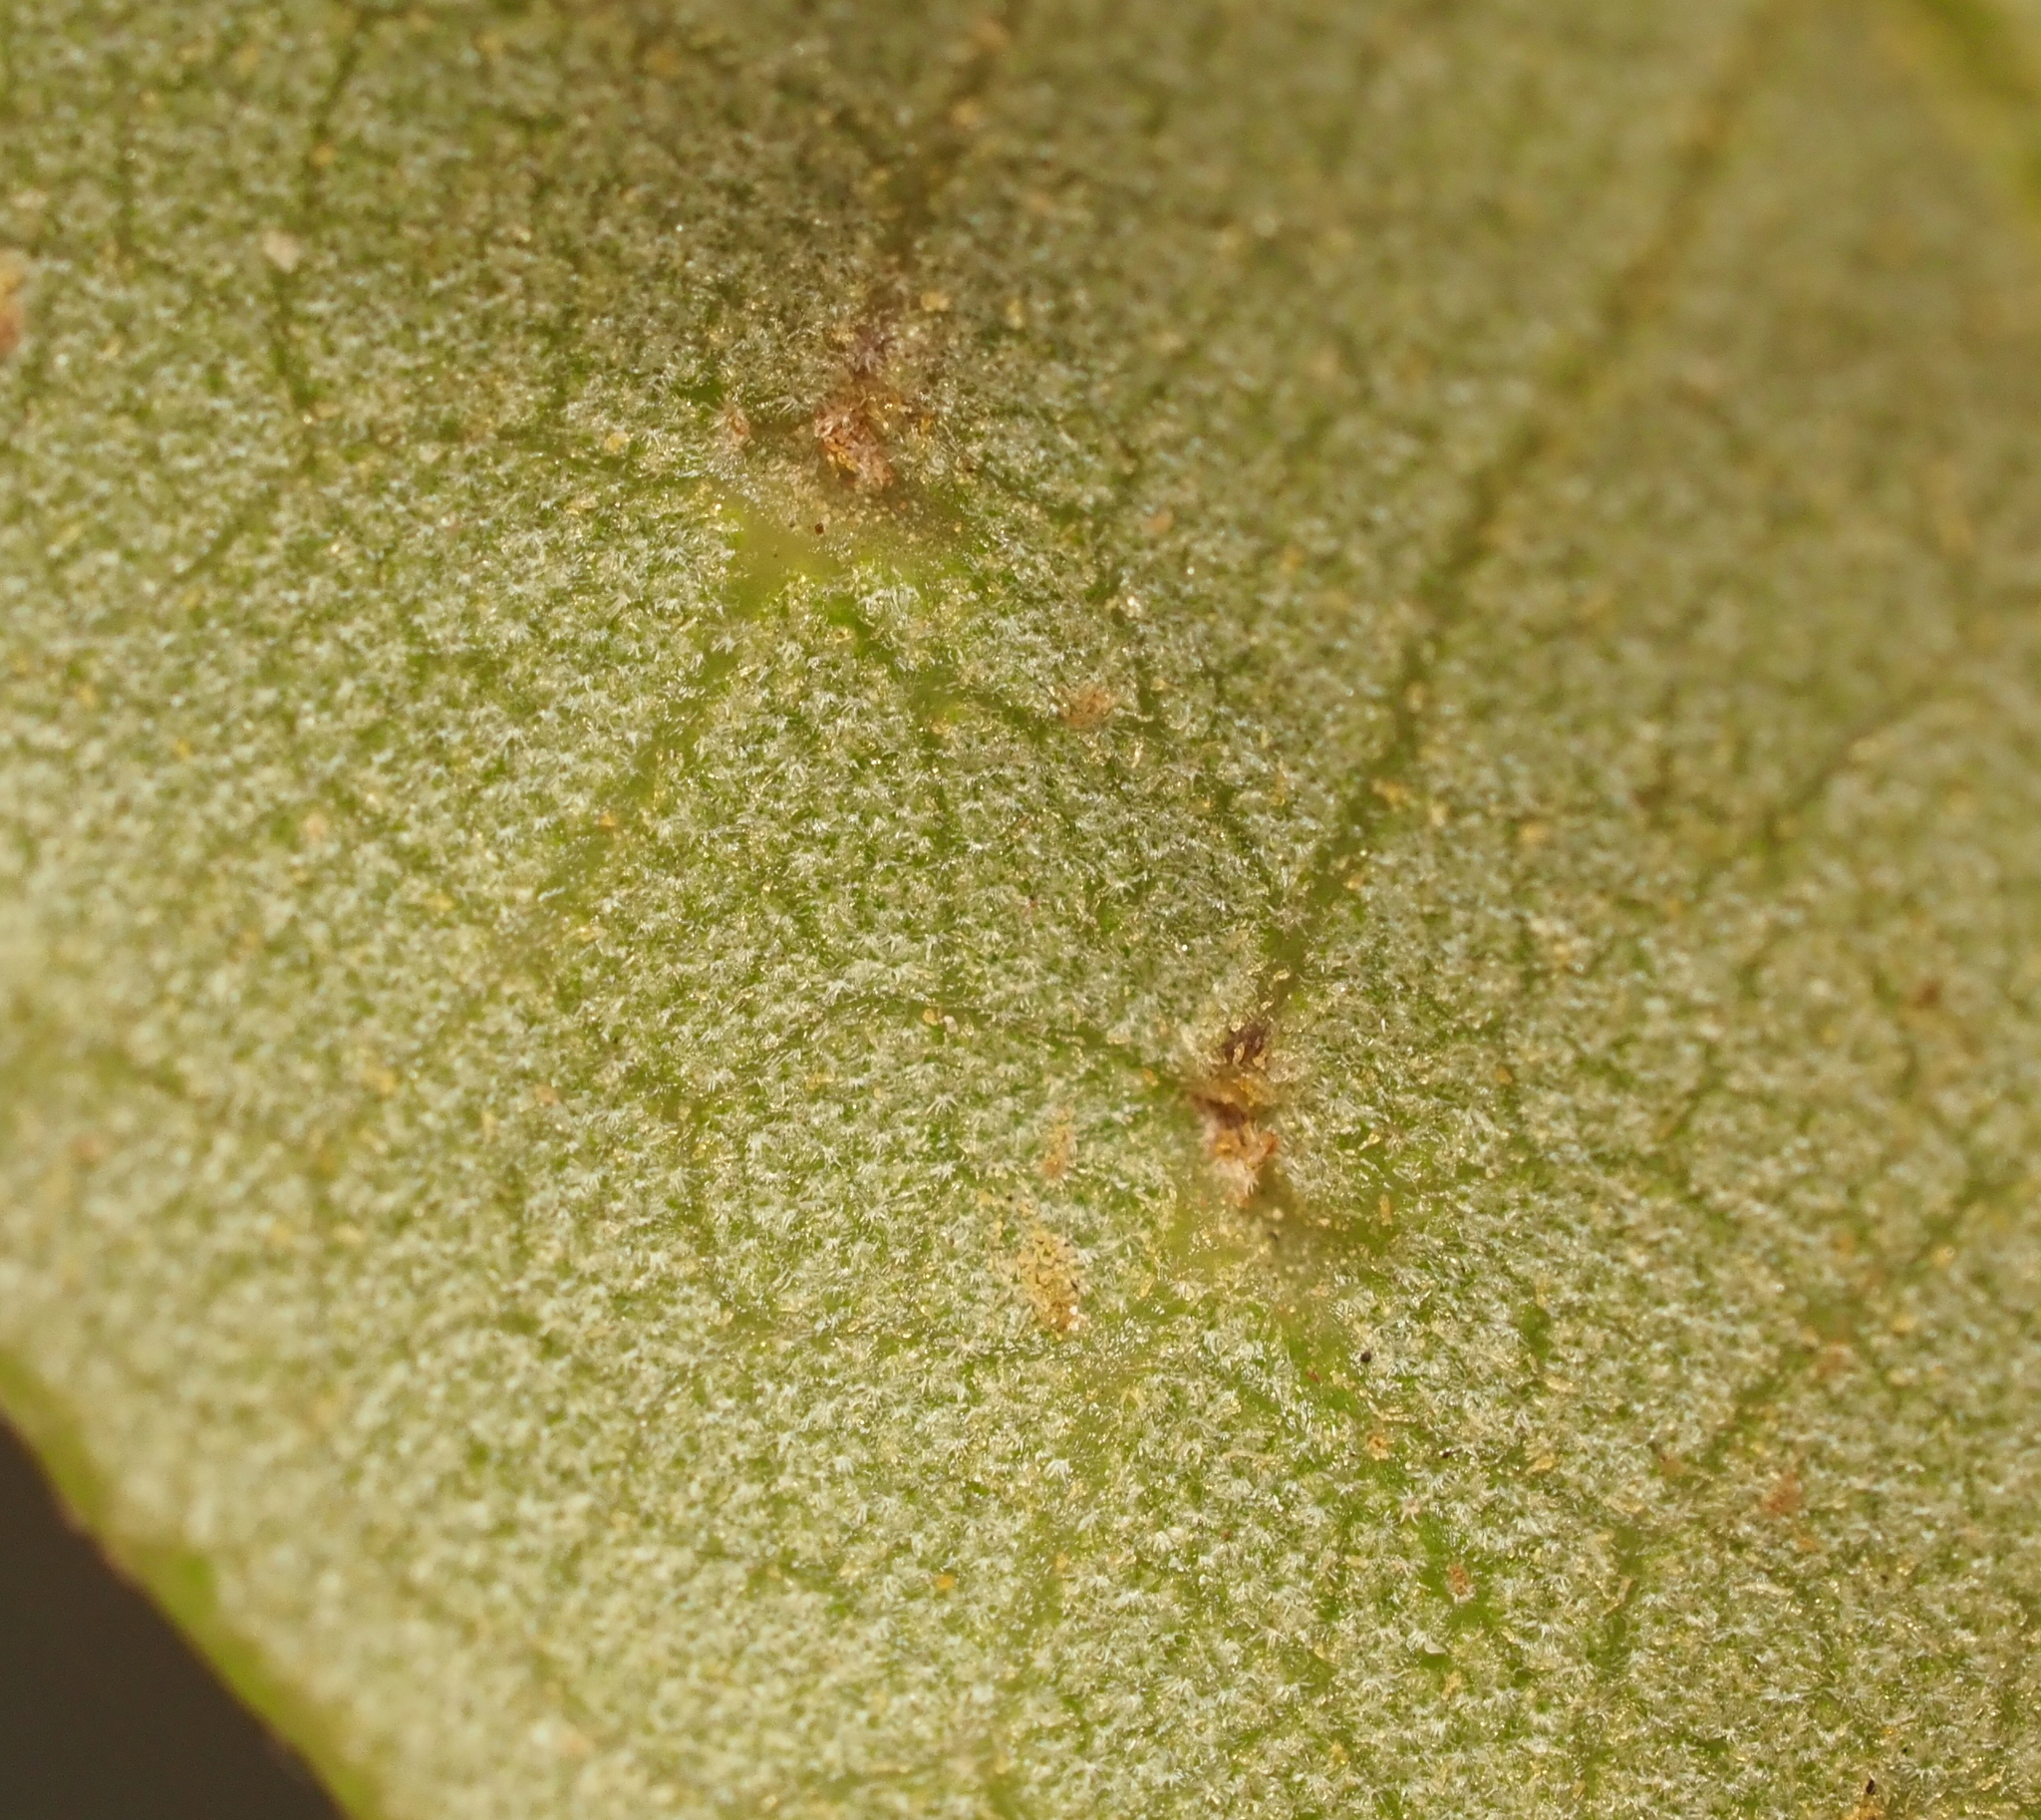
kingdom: Animalia
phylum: Arthropoda
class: Insecta
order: Hymenoptera
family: Cynipidae
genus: Belonocnema
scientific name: Belonocnema kinseyi
